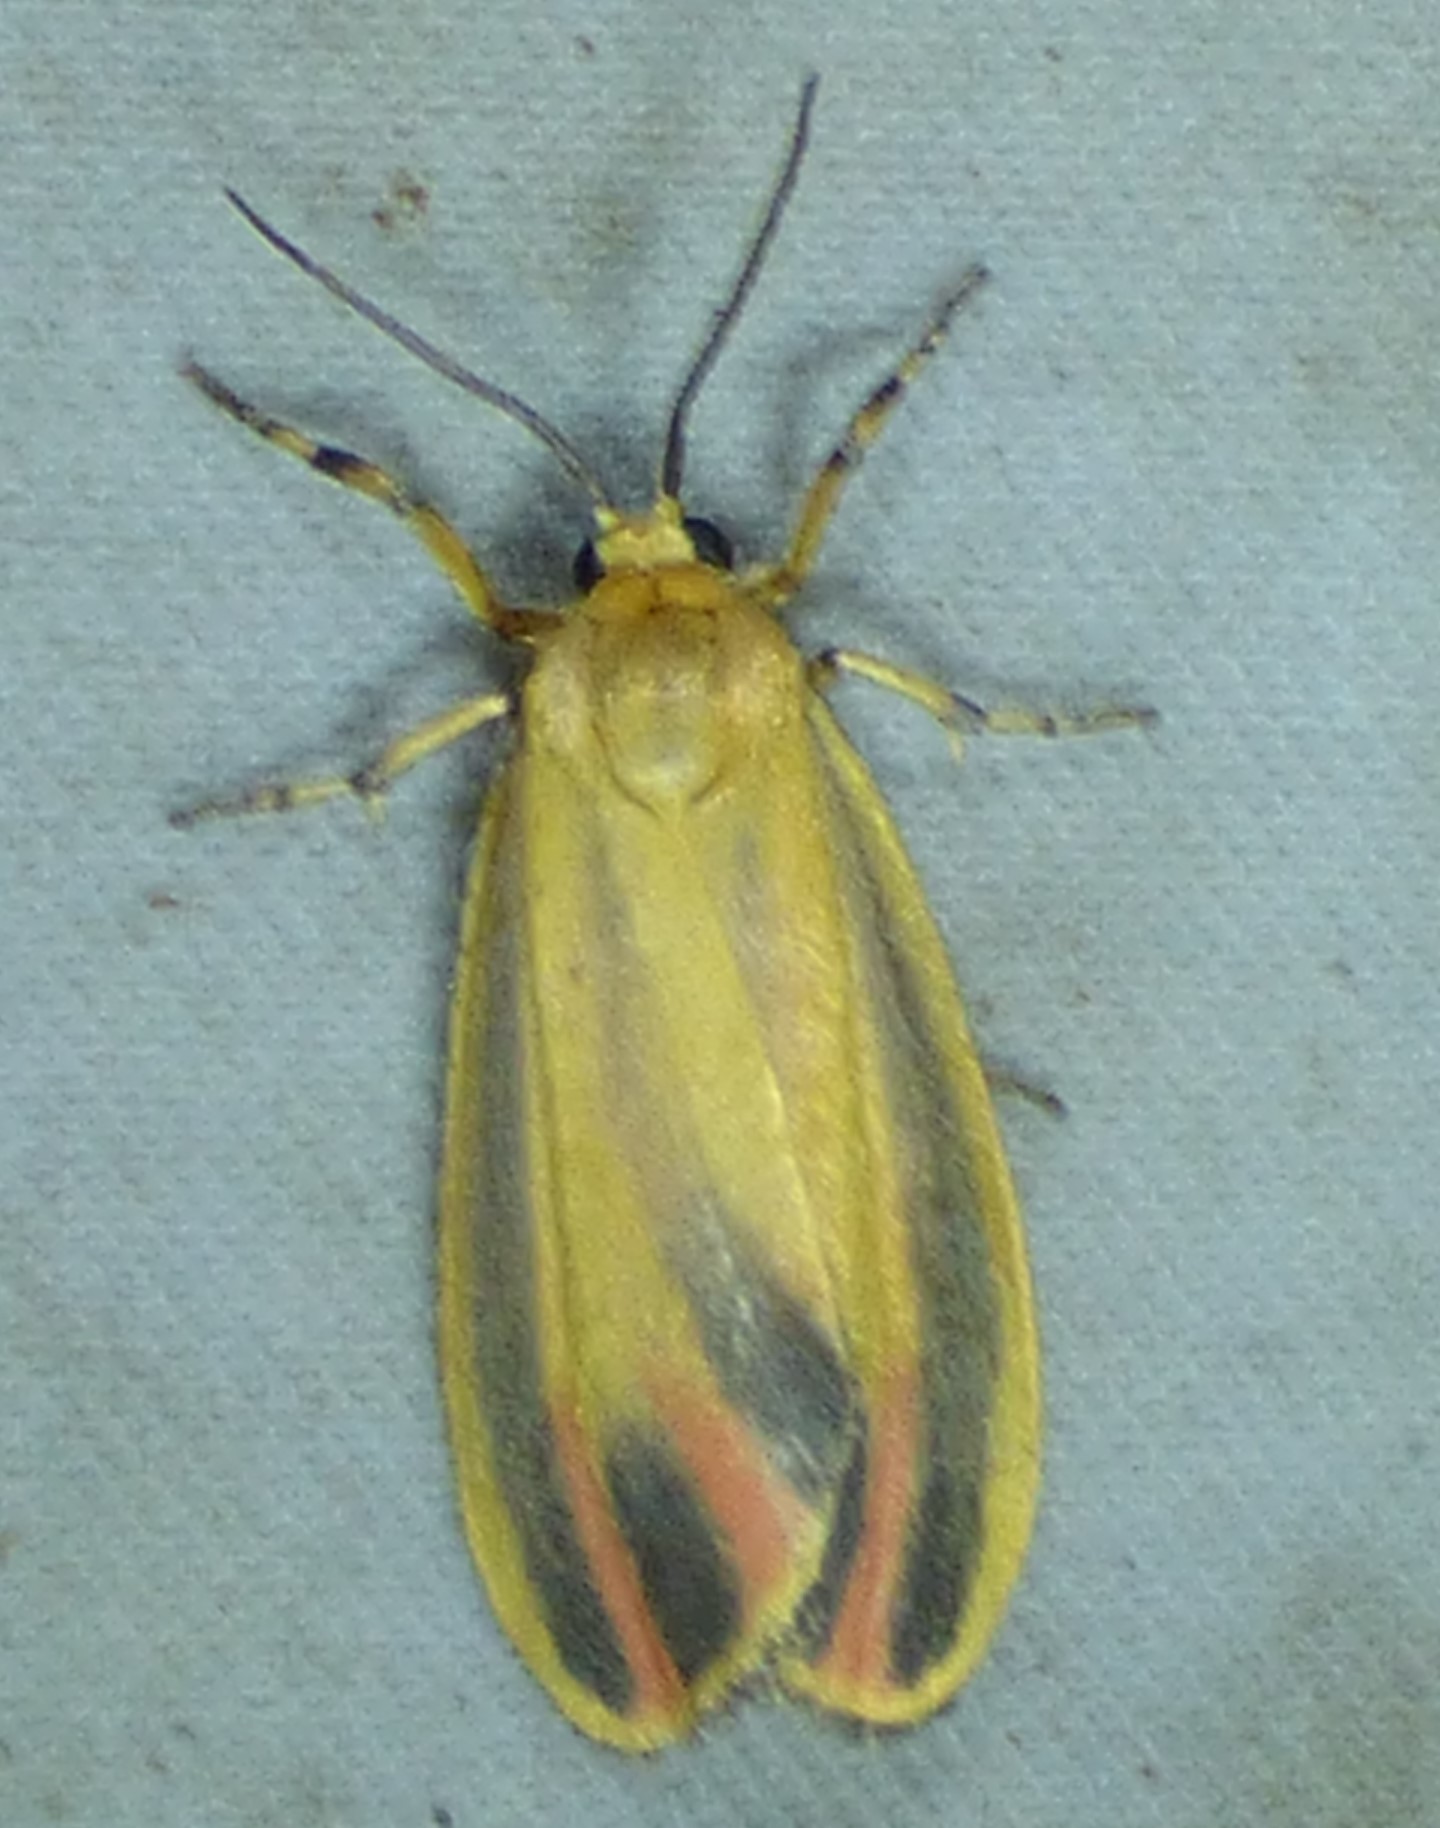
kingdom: Animalia
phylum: Arthropoda
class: Insecta
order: Lepidoptera
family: Erebidae
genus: Hypoprepia
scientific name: Hypoprepia fucosa
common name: Painted lichen moth
